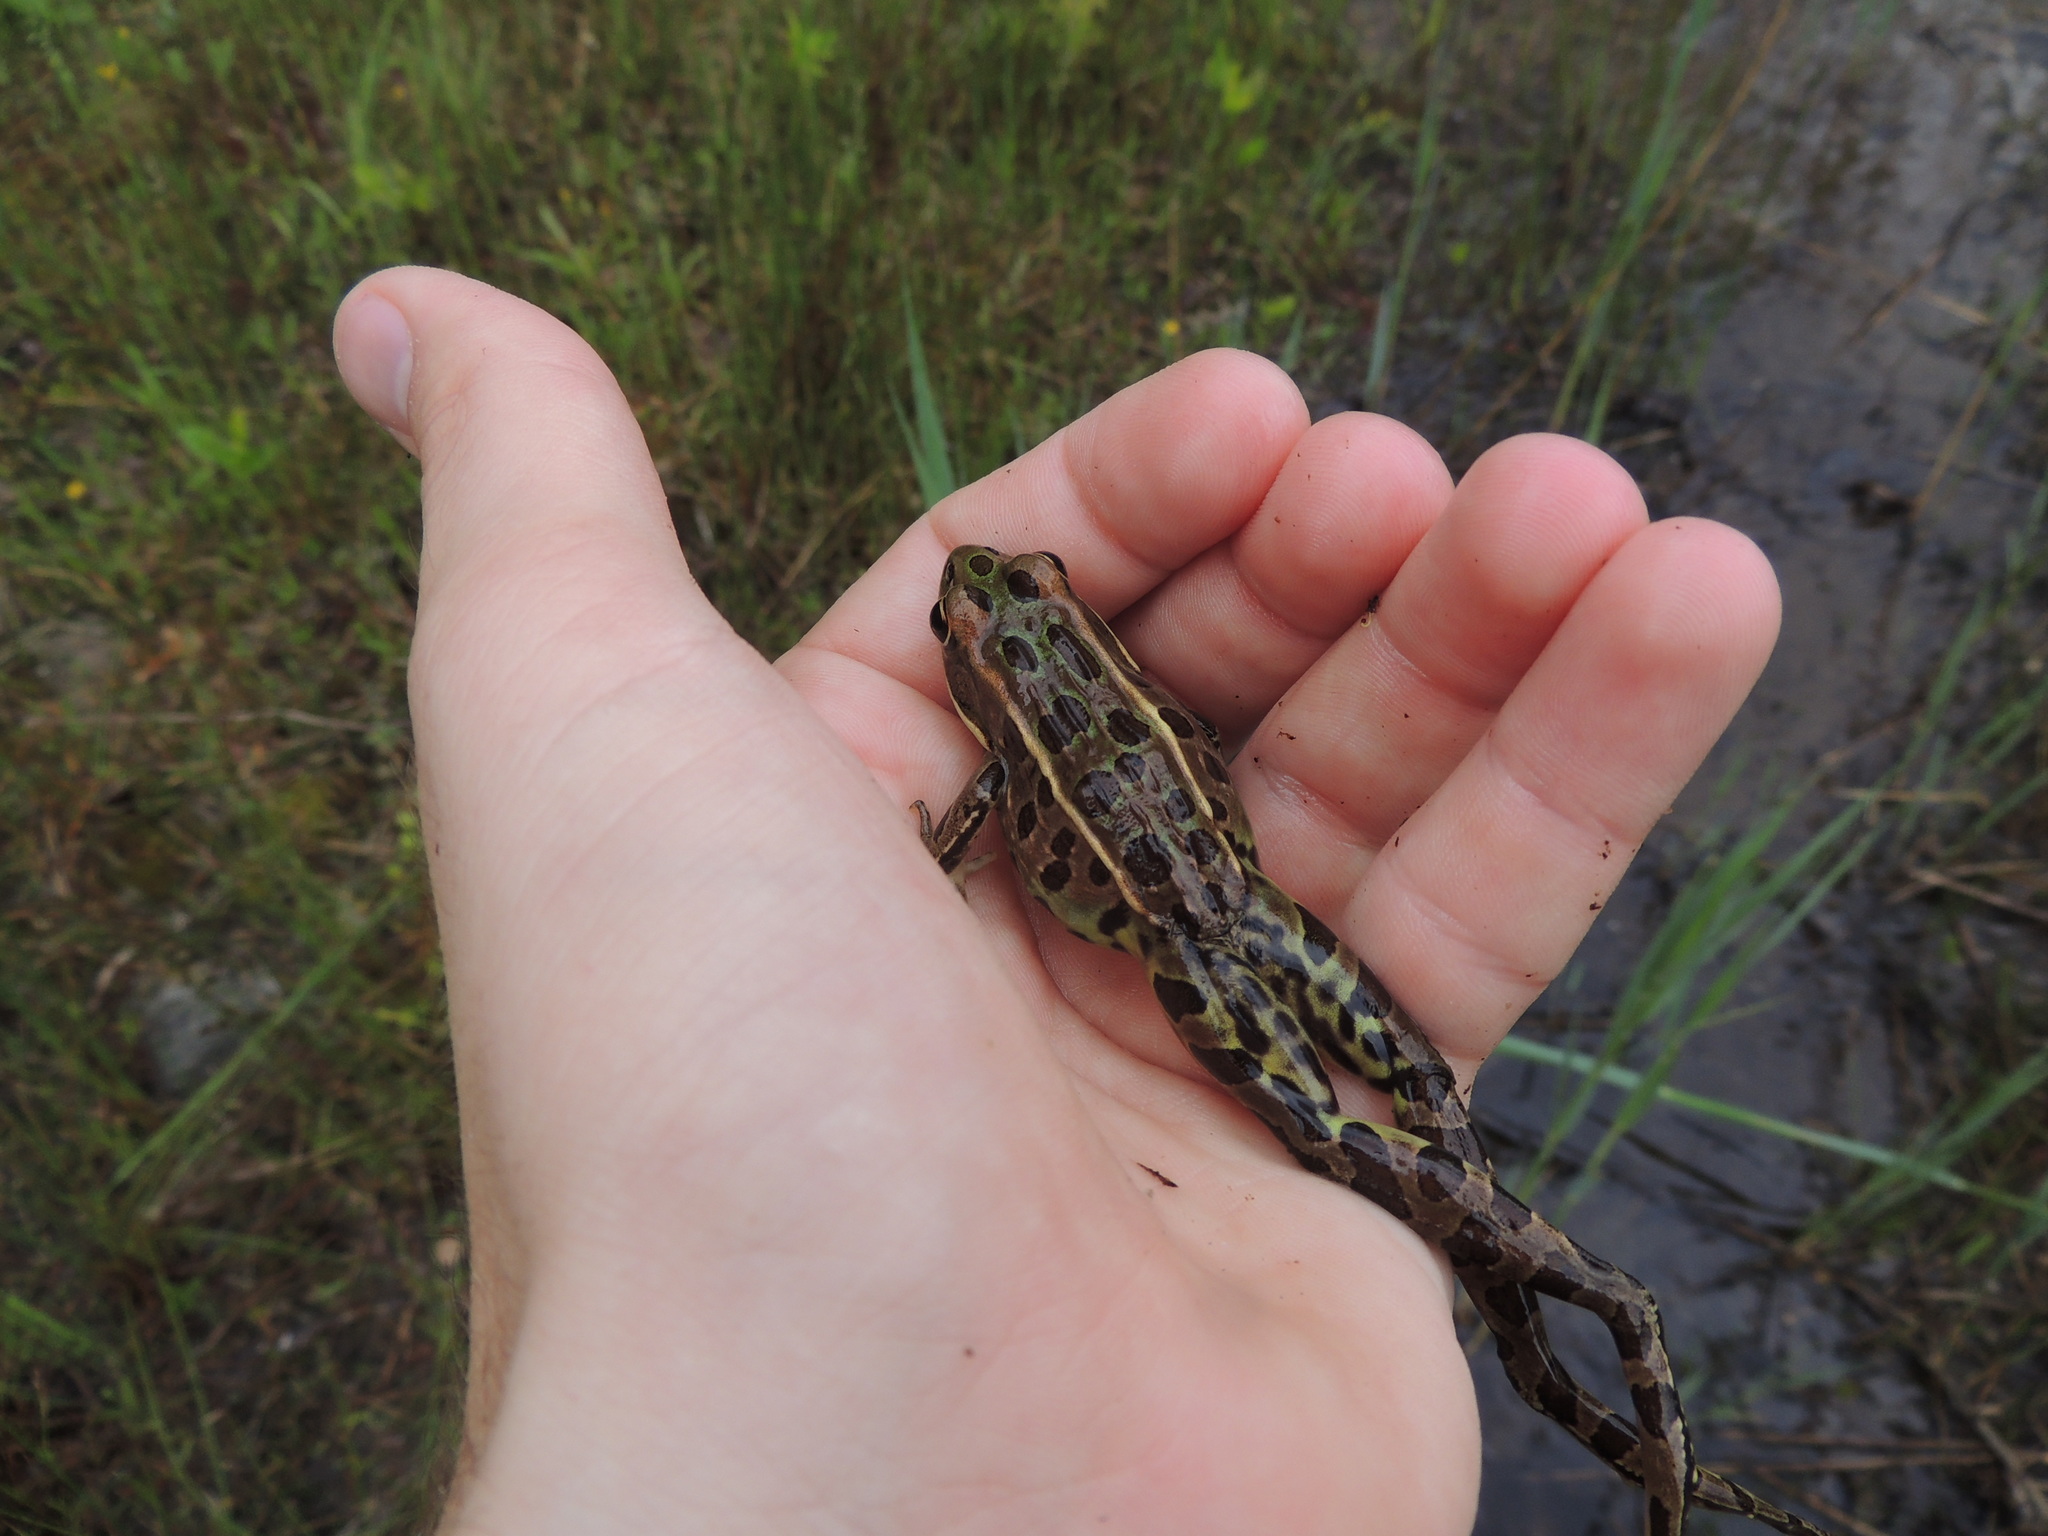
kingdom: Animalia
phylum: Chordata
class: Amphibia
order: Anura
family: Ranidae
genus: Lithobates
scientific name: Lithobates pipiens
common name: Northern leopard frog
